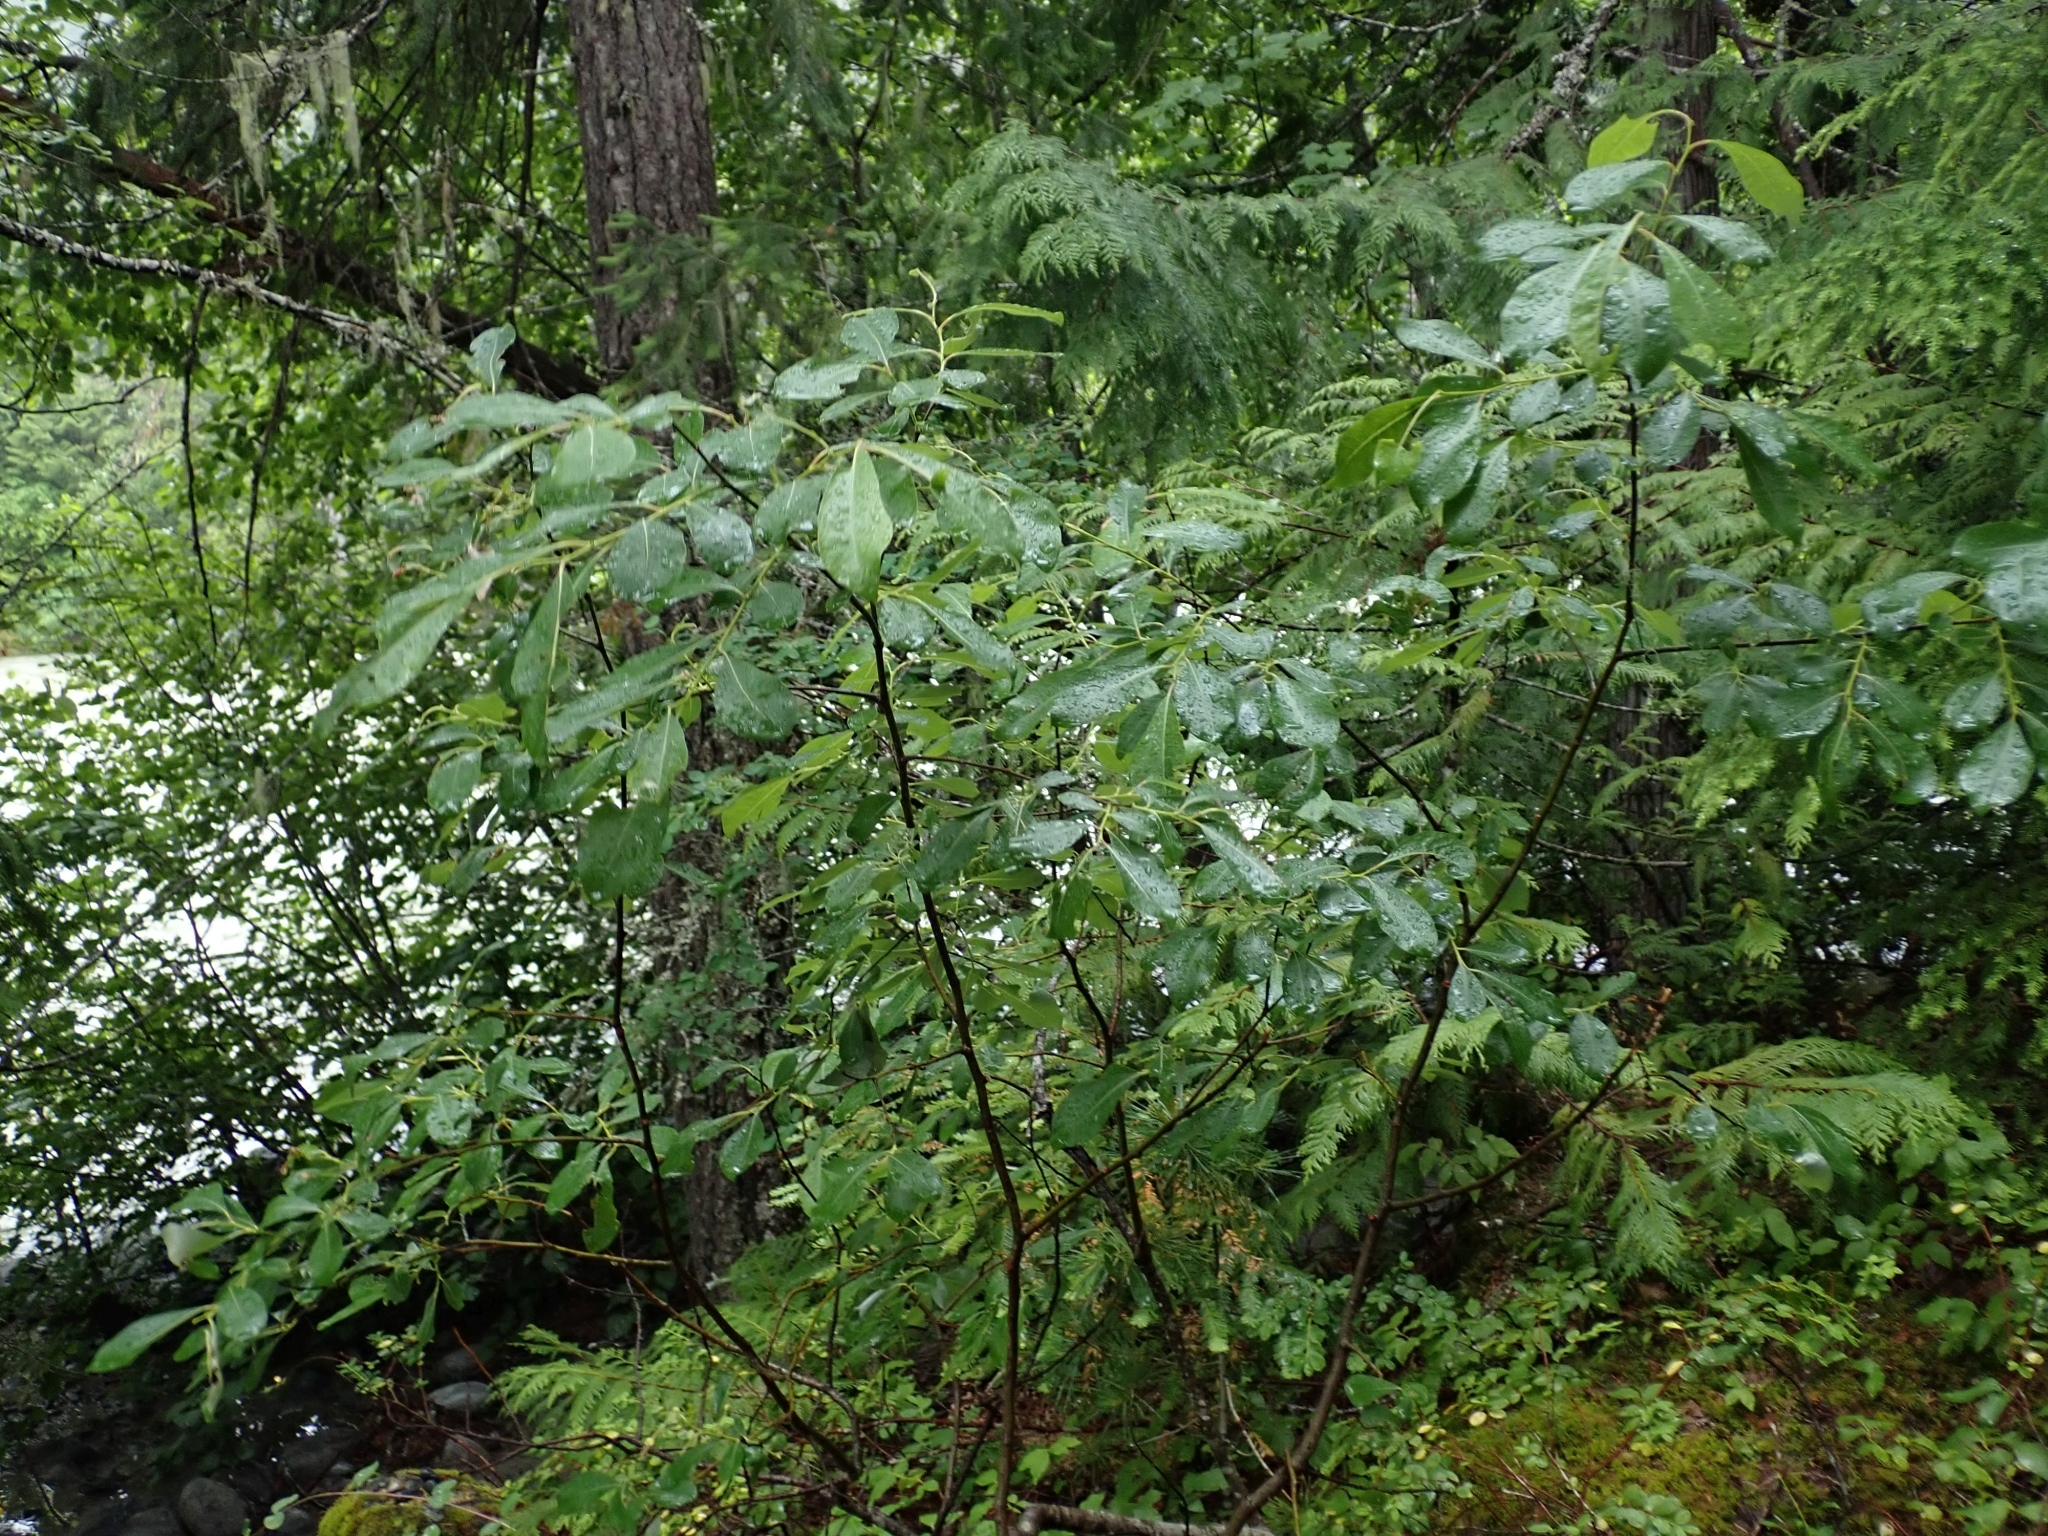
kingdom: Plantae
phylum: Tracheophyta
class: Magnoliopsida
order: Malpighiales
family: Salicaceae
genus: Salix
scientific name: Salix scouleriana
